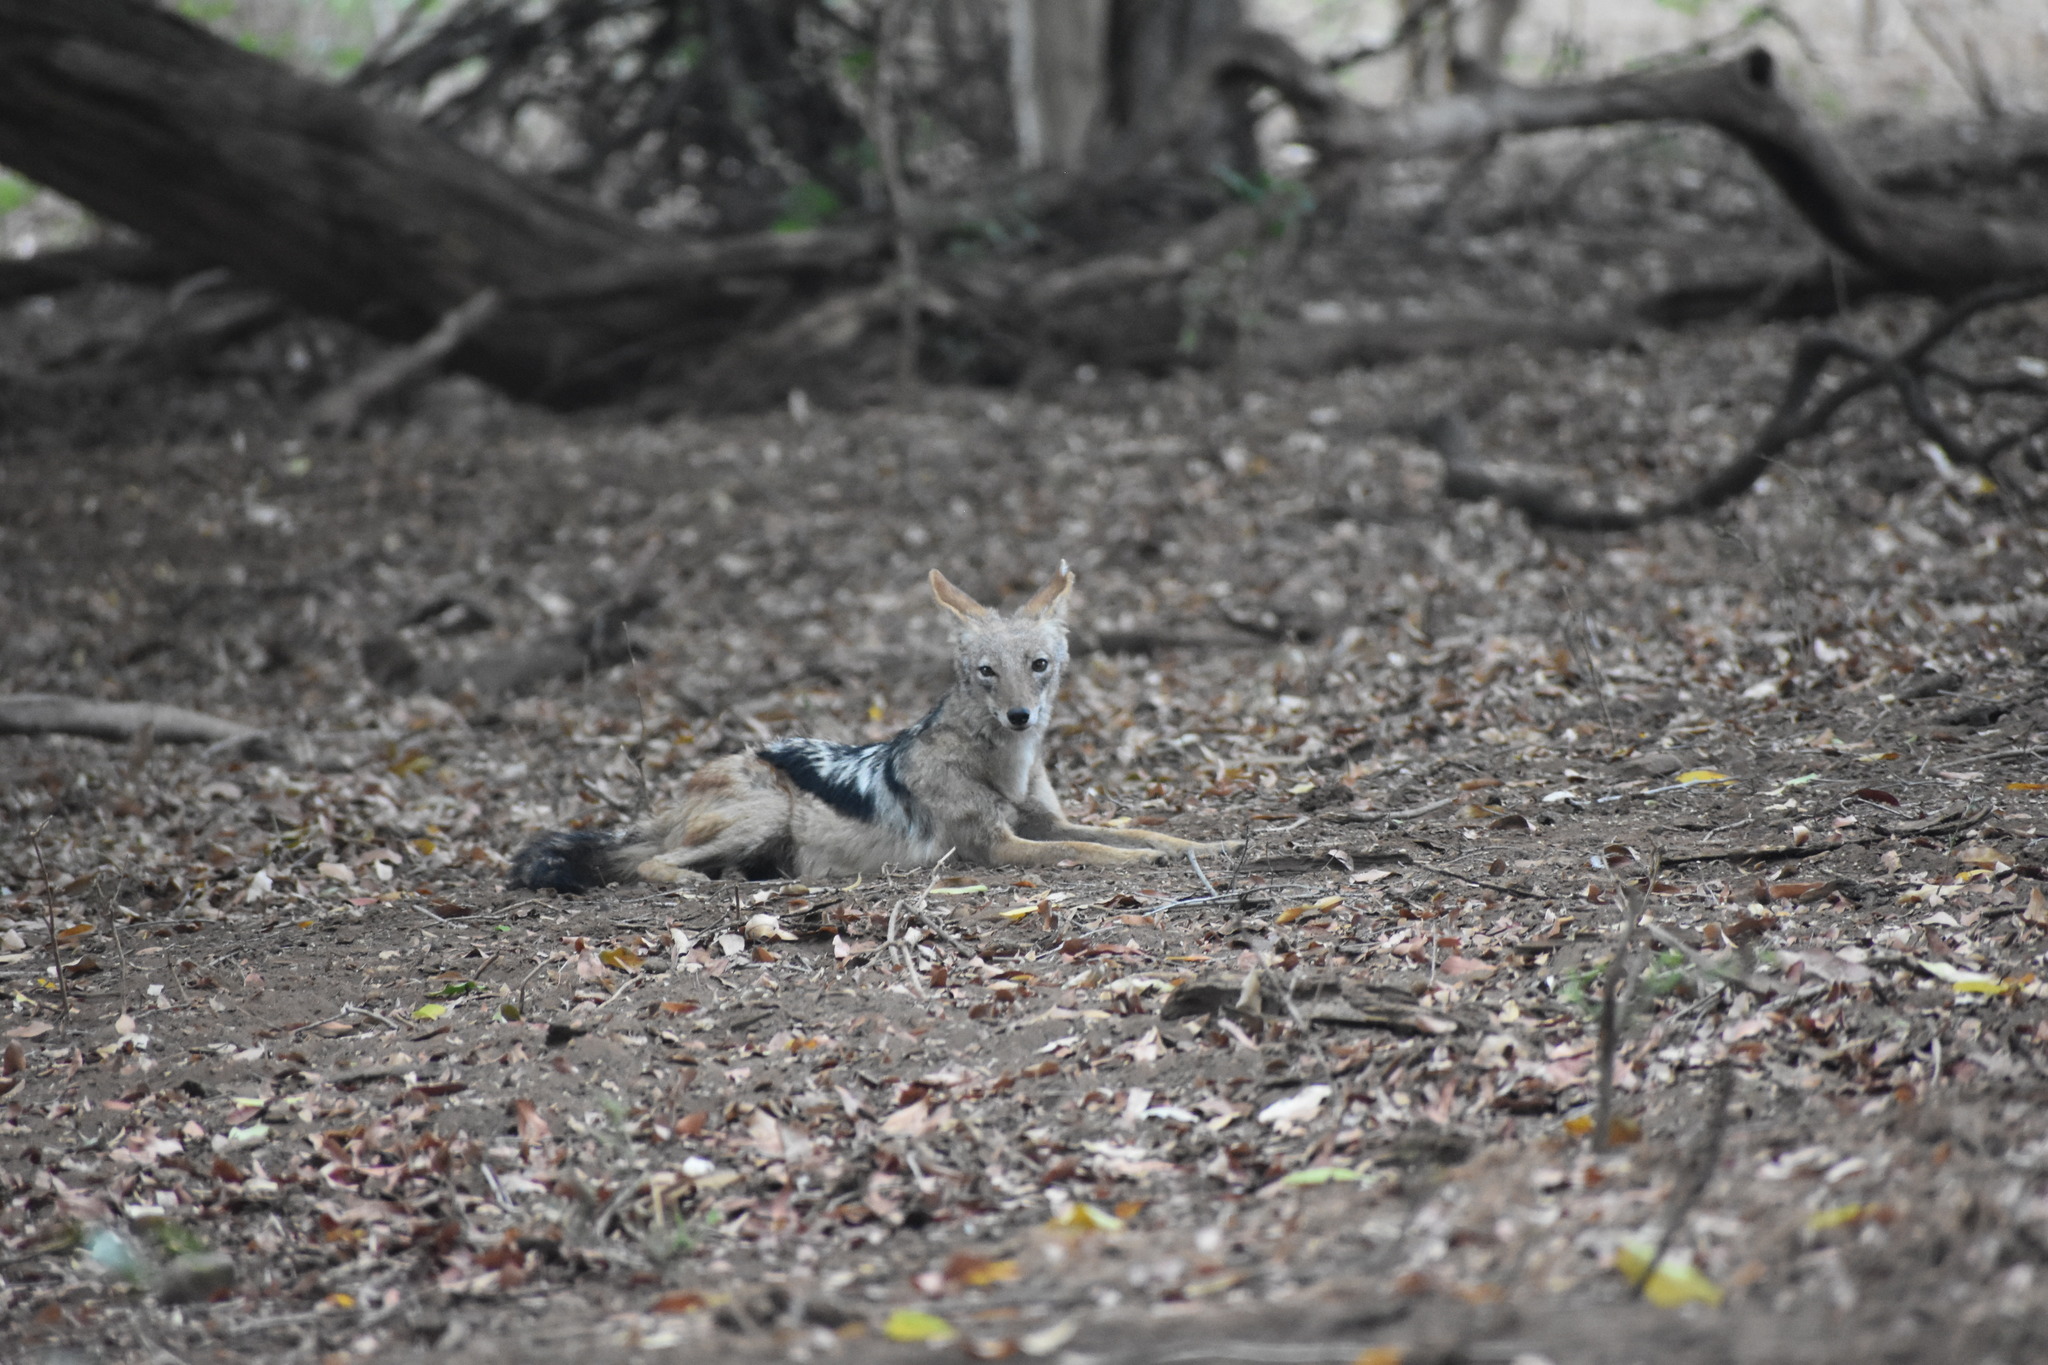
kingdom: Animalia
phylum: Chordata
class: Mammalia
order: Carnivora
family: Canidae
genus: Lupulella
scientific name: Lupulella
